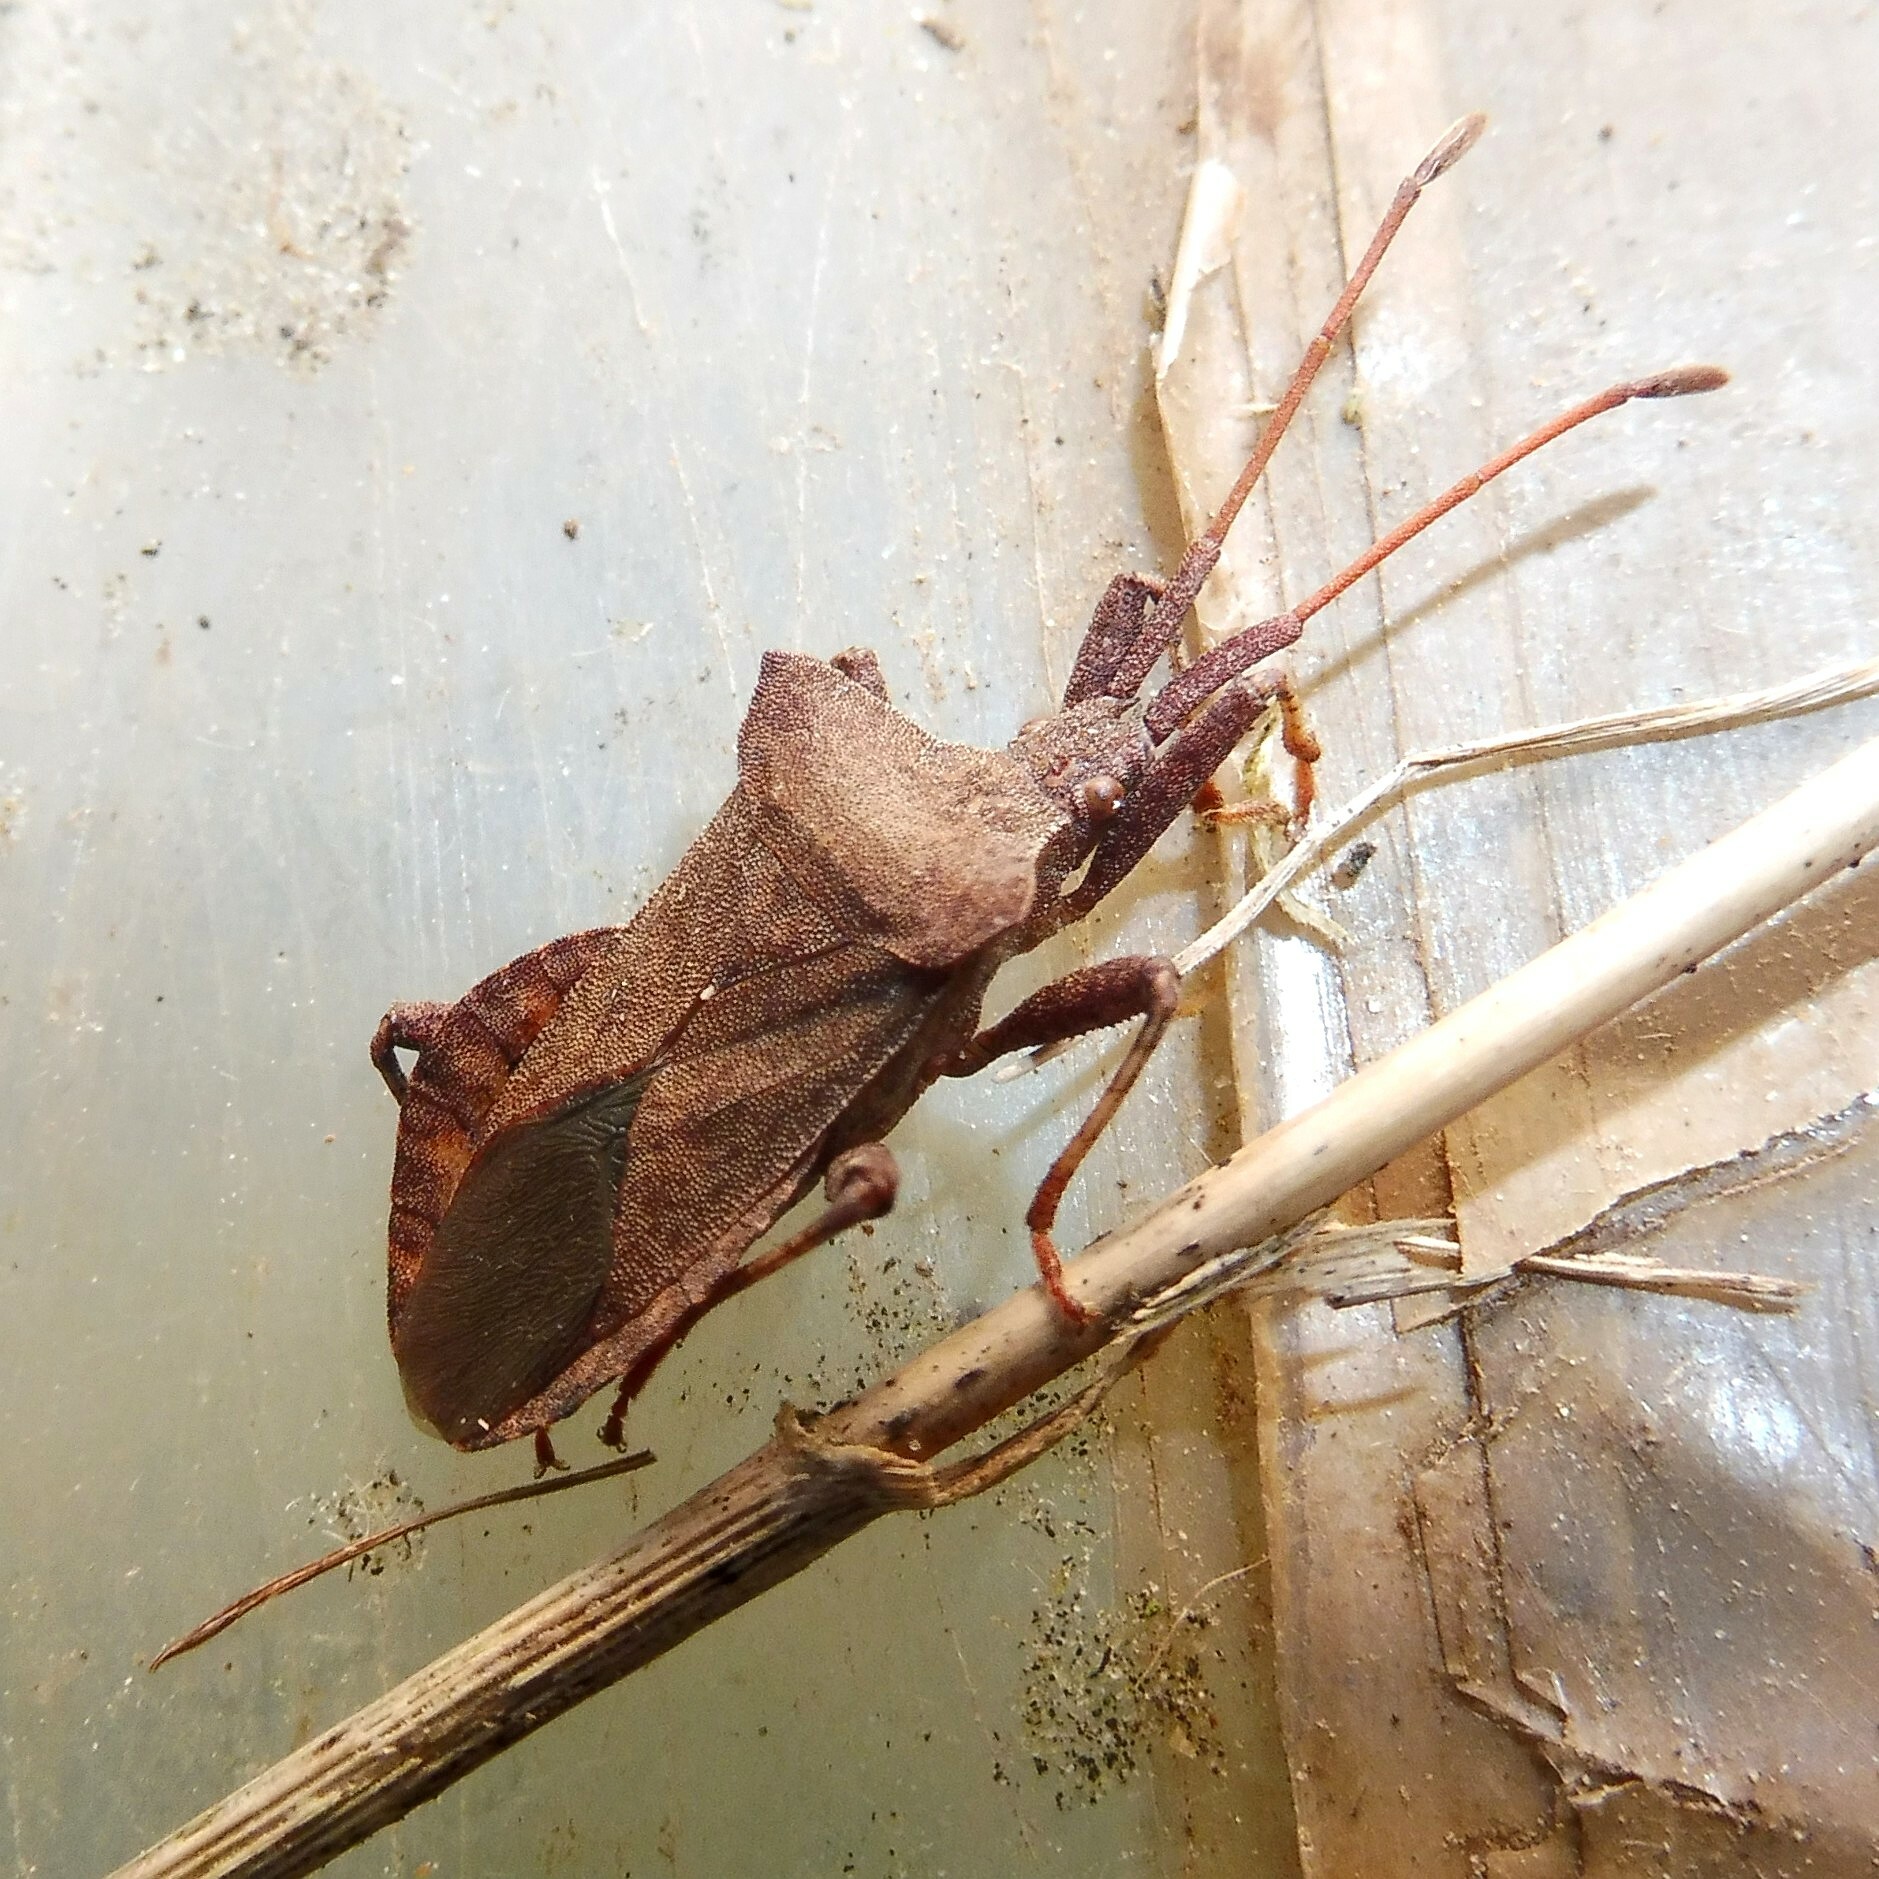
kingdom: Animalia
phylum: Arthropoda
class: Insecta
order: Hemiptera
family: Coreidae
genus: Coreus
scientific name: Coreus marginatus
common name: Dock bug
